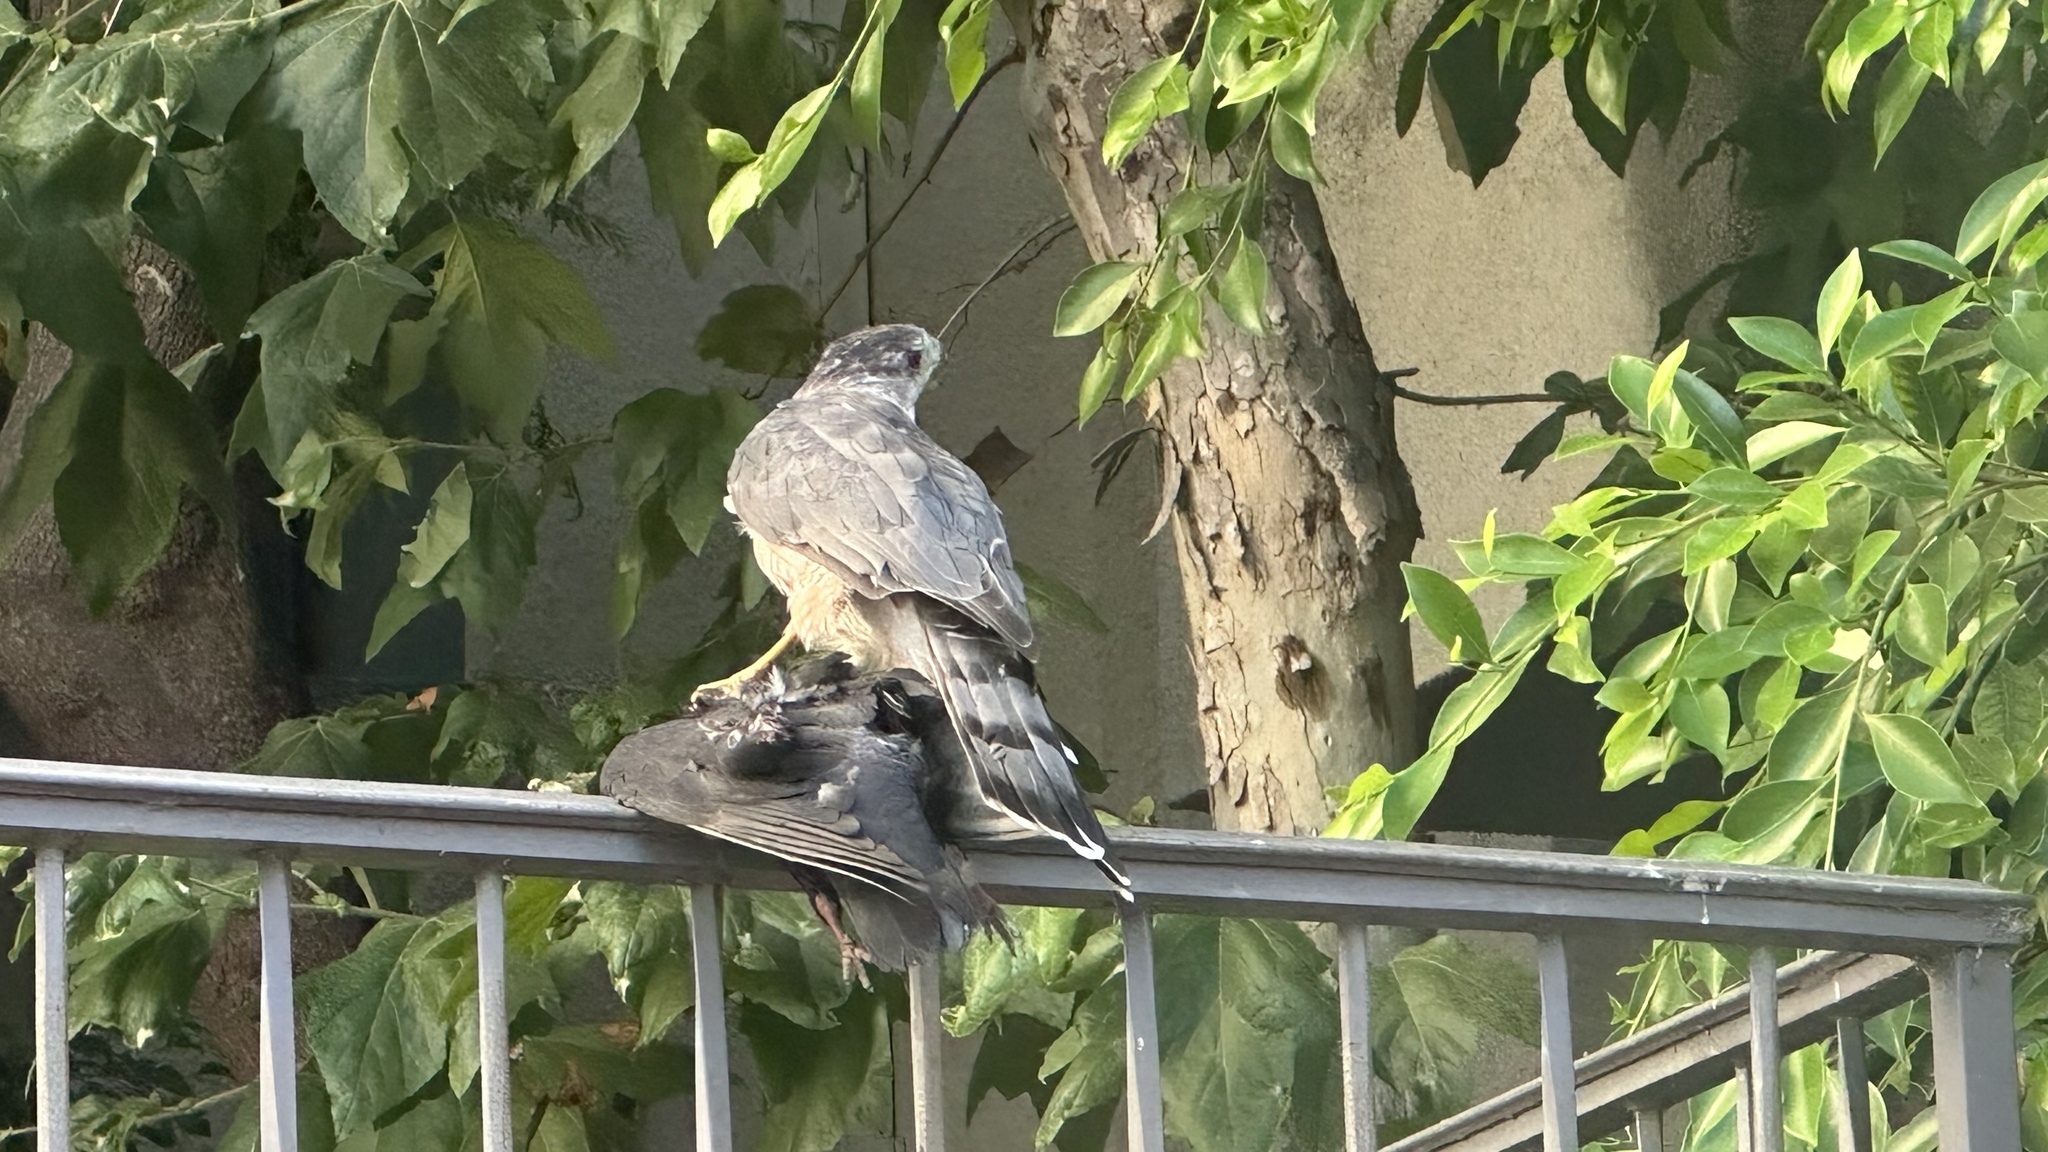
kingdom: Animalia
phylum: Chordata
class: Aves
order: Accipitriformes
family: Accipitridae
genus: Accipiter
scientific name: Accipiter cooperii
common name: Cooper's hawk
